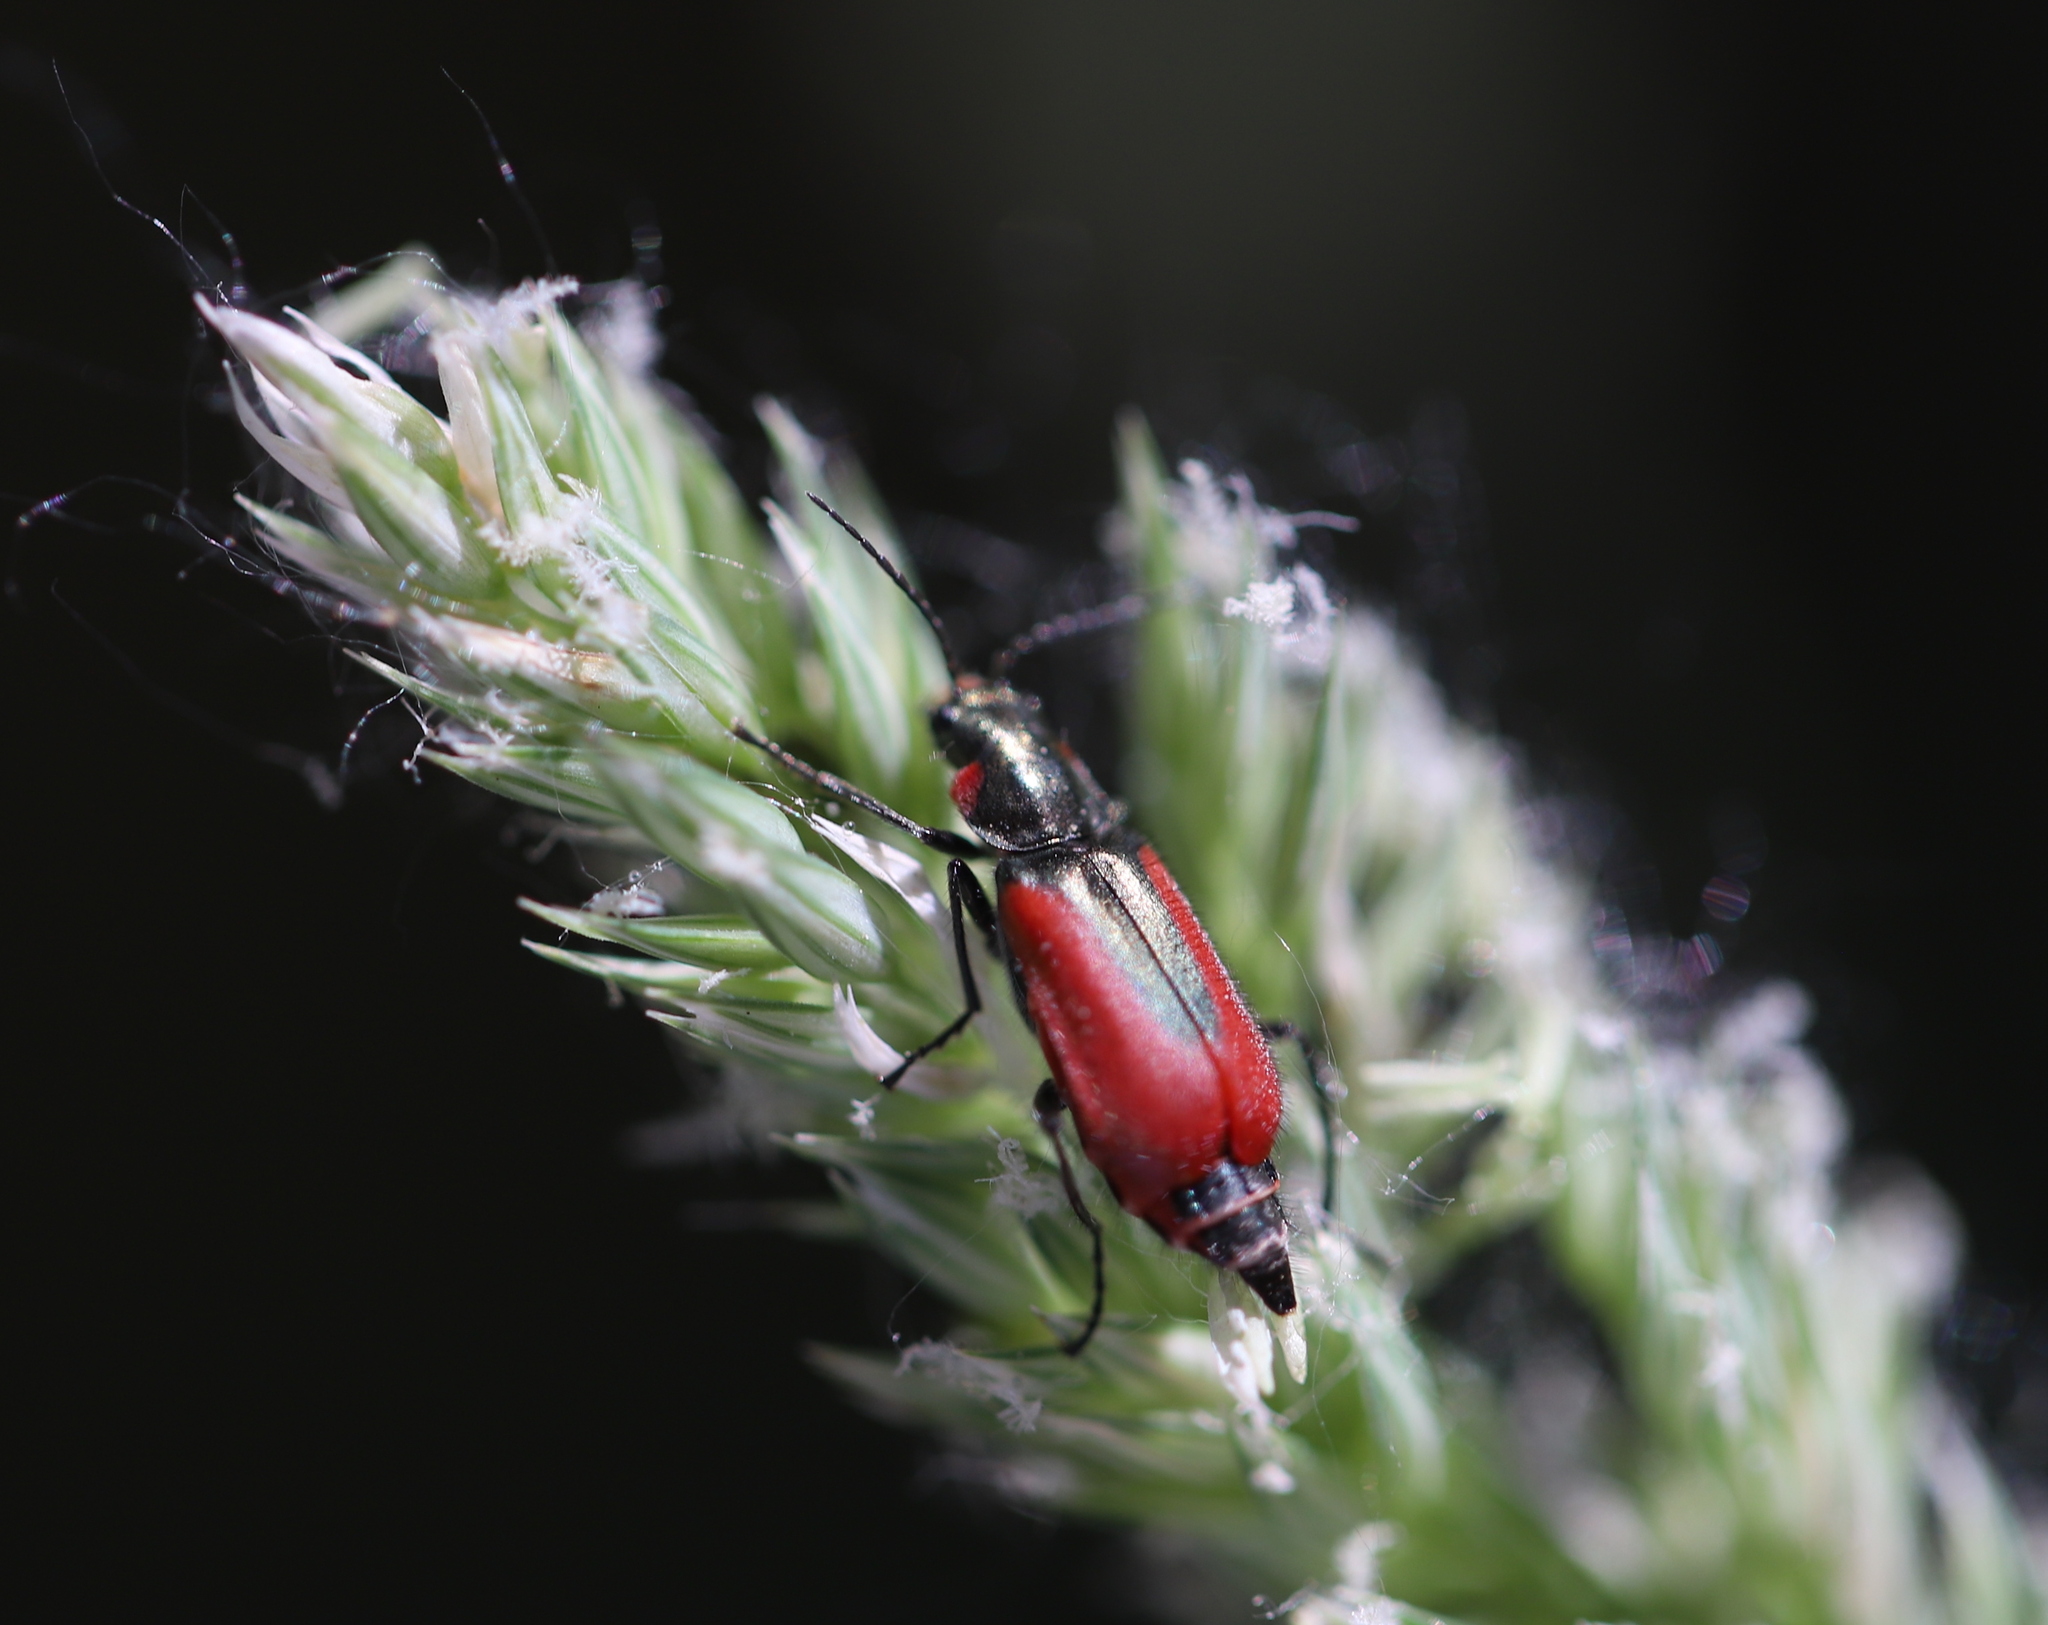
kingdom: Animalia
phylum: Arthropoda
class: Insecta
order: Coleoptera
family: Melyridae
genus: Malachius
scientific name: Malachius aeneus
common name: Scarlet malachite beetle
